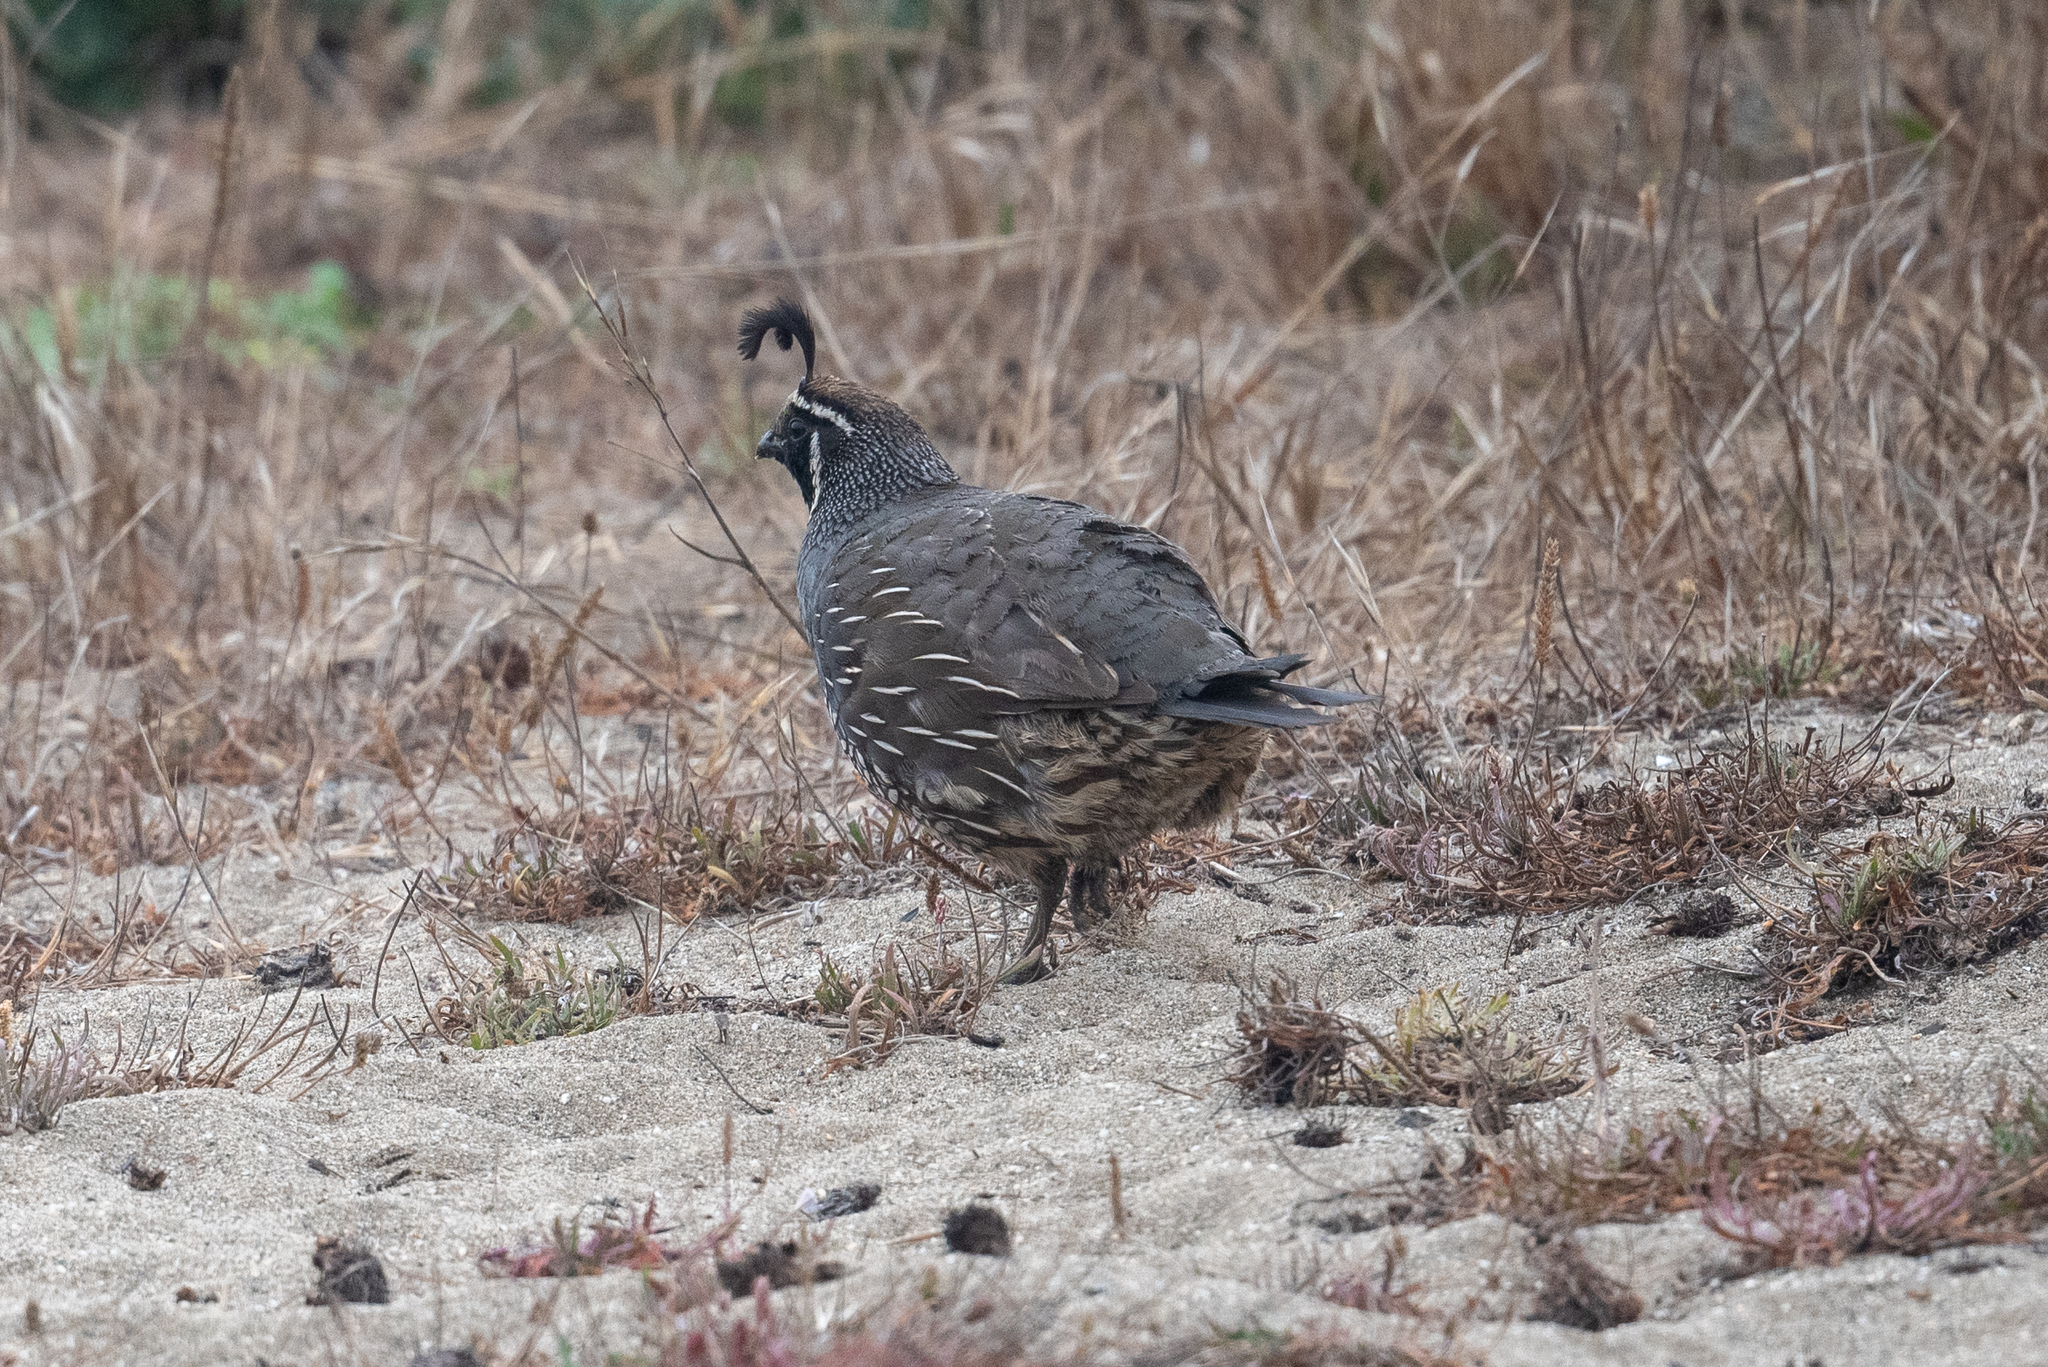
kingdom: Animalia
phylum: Chordata
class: Aves
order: Galliformes
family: Odontophoridae
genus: Callipepla
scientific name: Callipepla californica
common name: California quail
